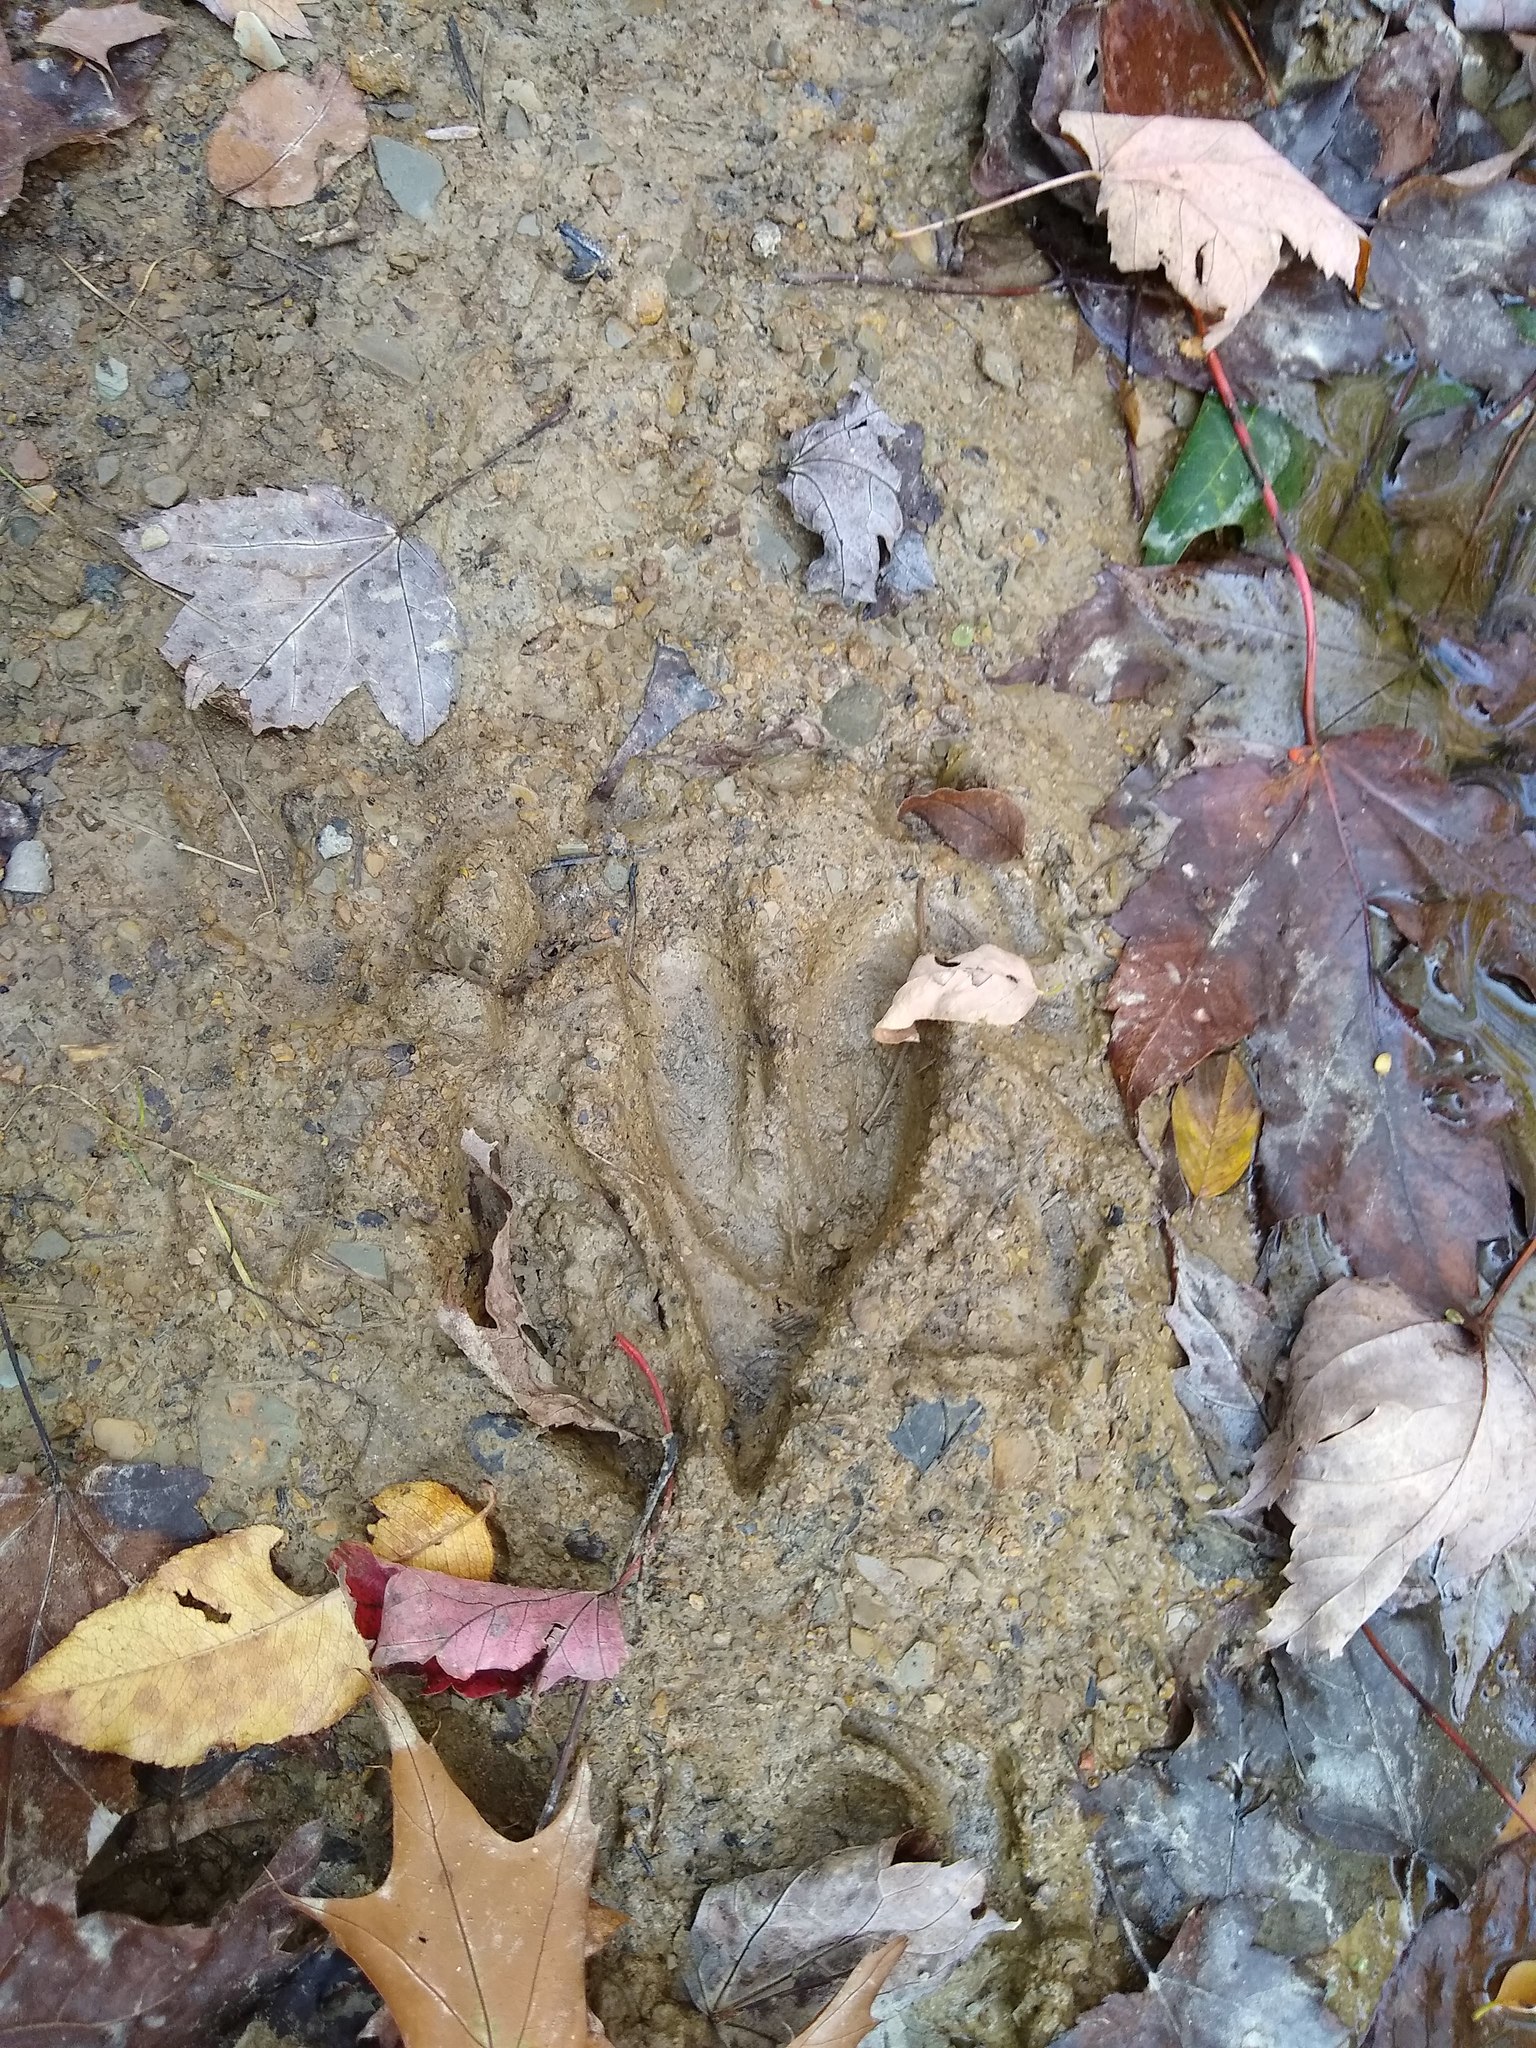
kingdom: Animalia
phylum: Chordata
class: Mammalia
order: Artiodactyla
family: Cervidae
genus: Odocoileus
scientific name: Odocoileus virginianus
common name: White-tailed deer
